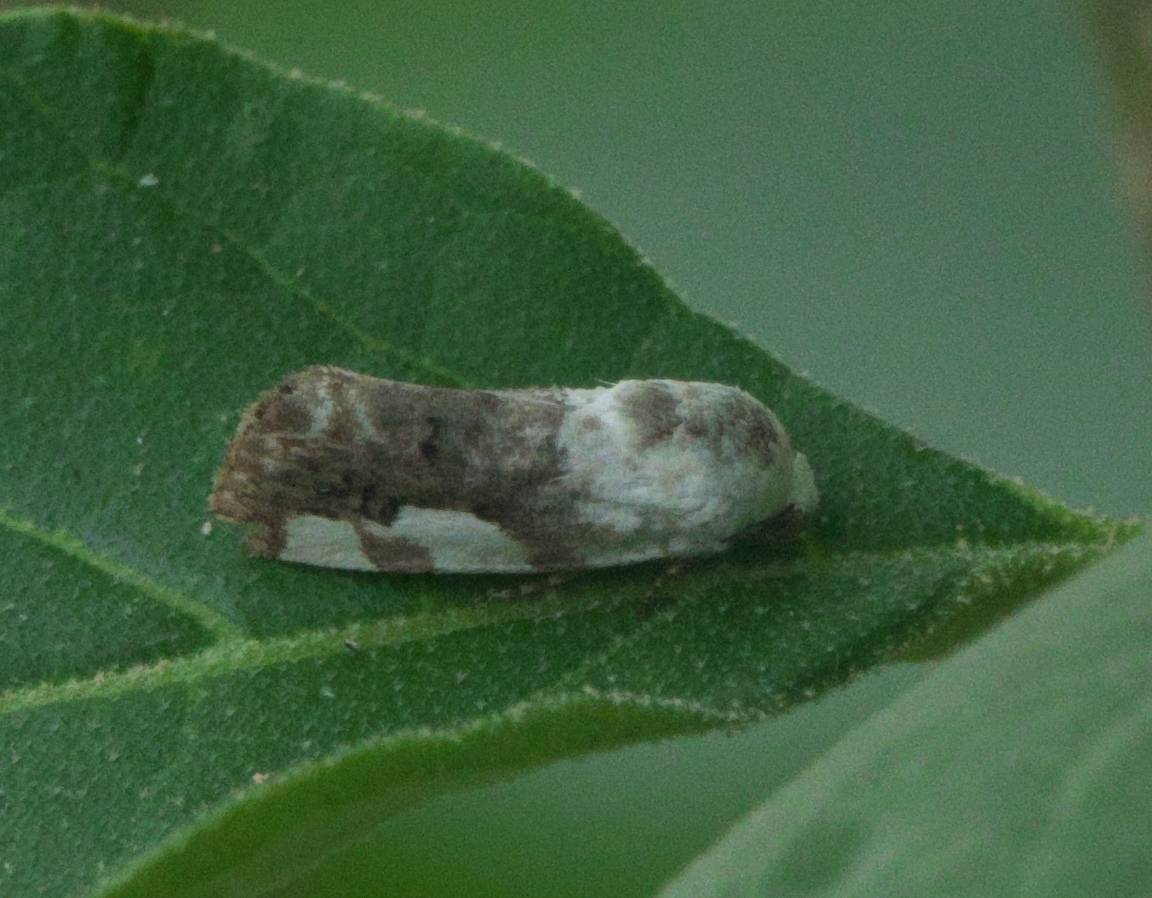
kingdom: Animalia
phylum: Arthropoda
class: Insecta
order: Lepidoptera
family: Noctuidae
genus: Acontia
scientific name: Acontia quadriplaga
